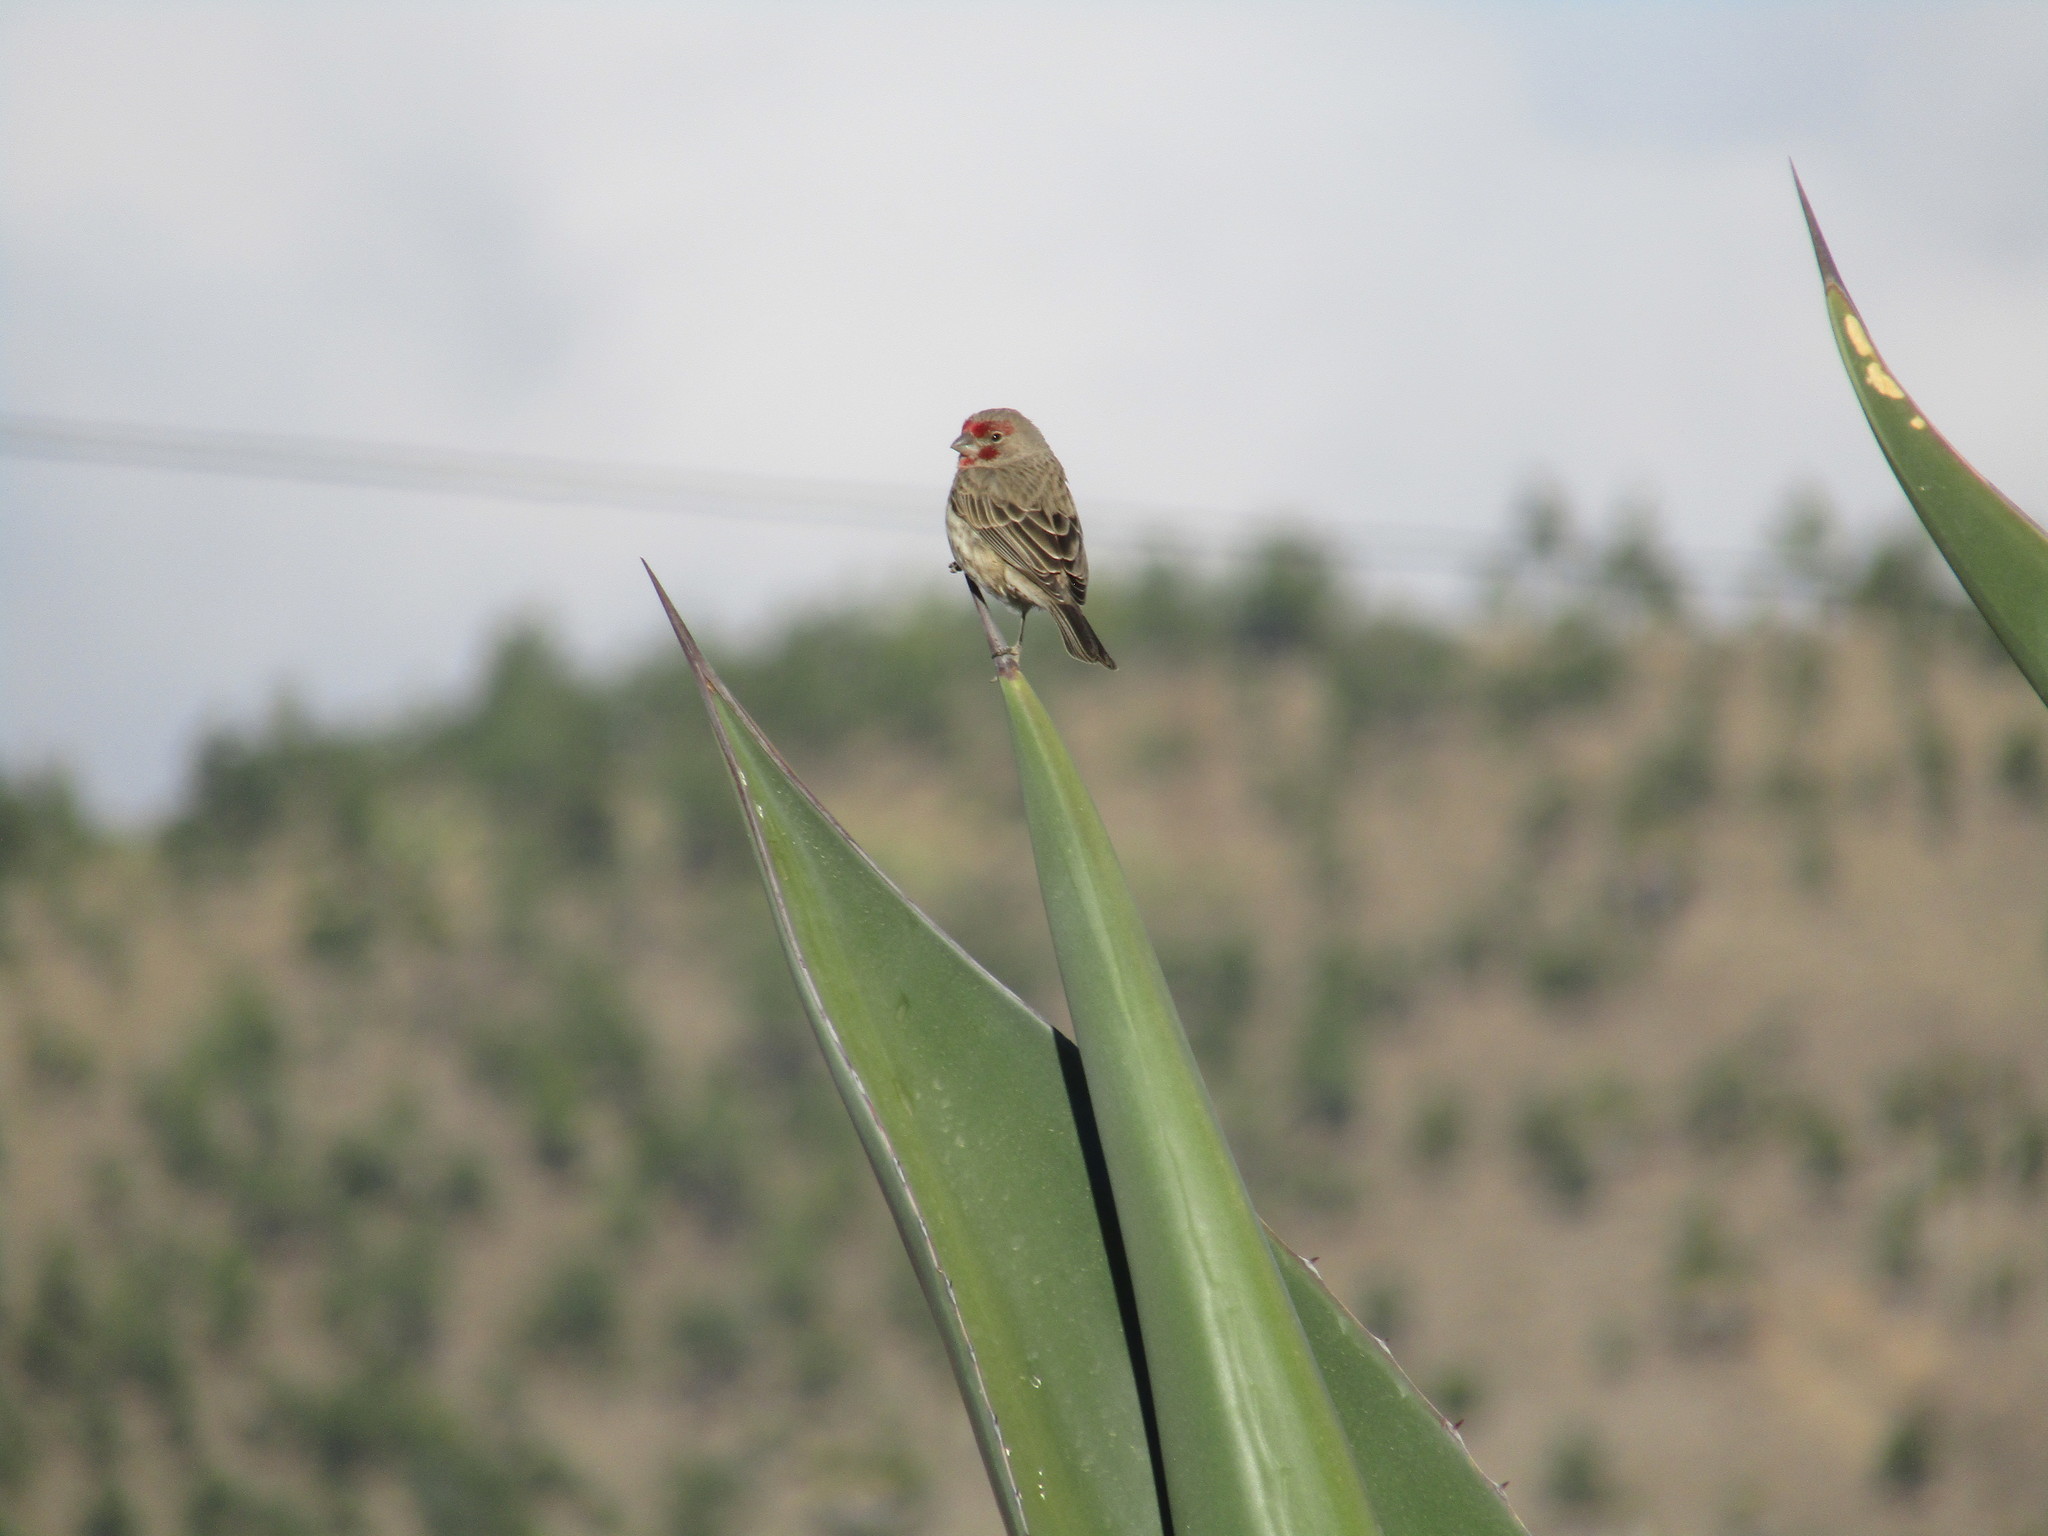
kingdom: Animalia
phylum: Chordata
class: Aves
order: Passeriformes
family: Fringillidae
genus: Haemorhous
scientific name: Haemorhous mexicanus
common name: House finch
